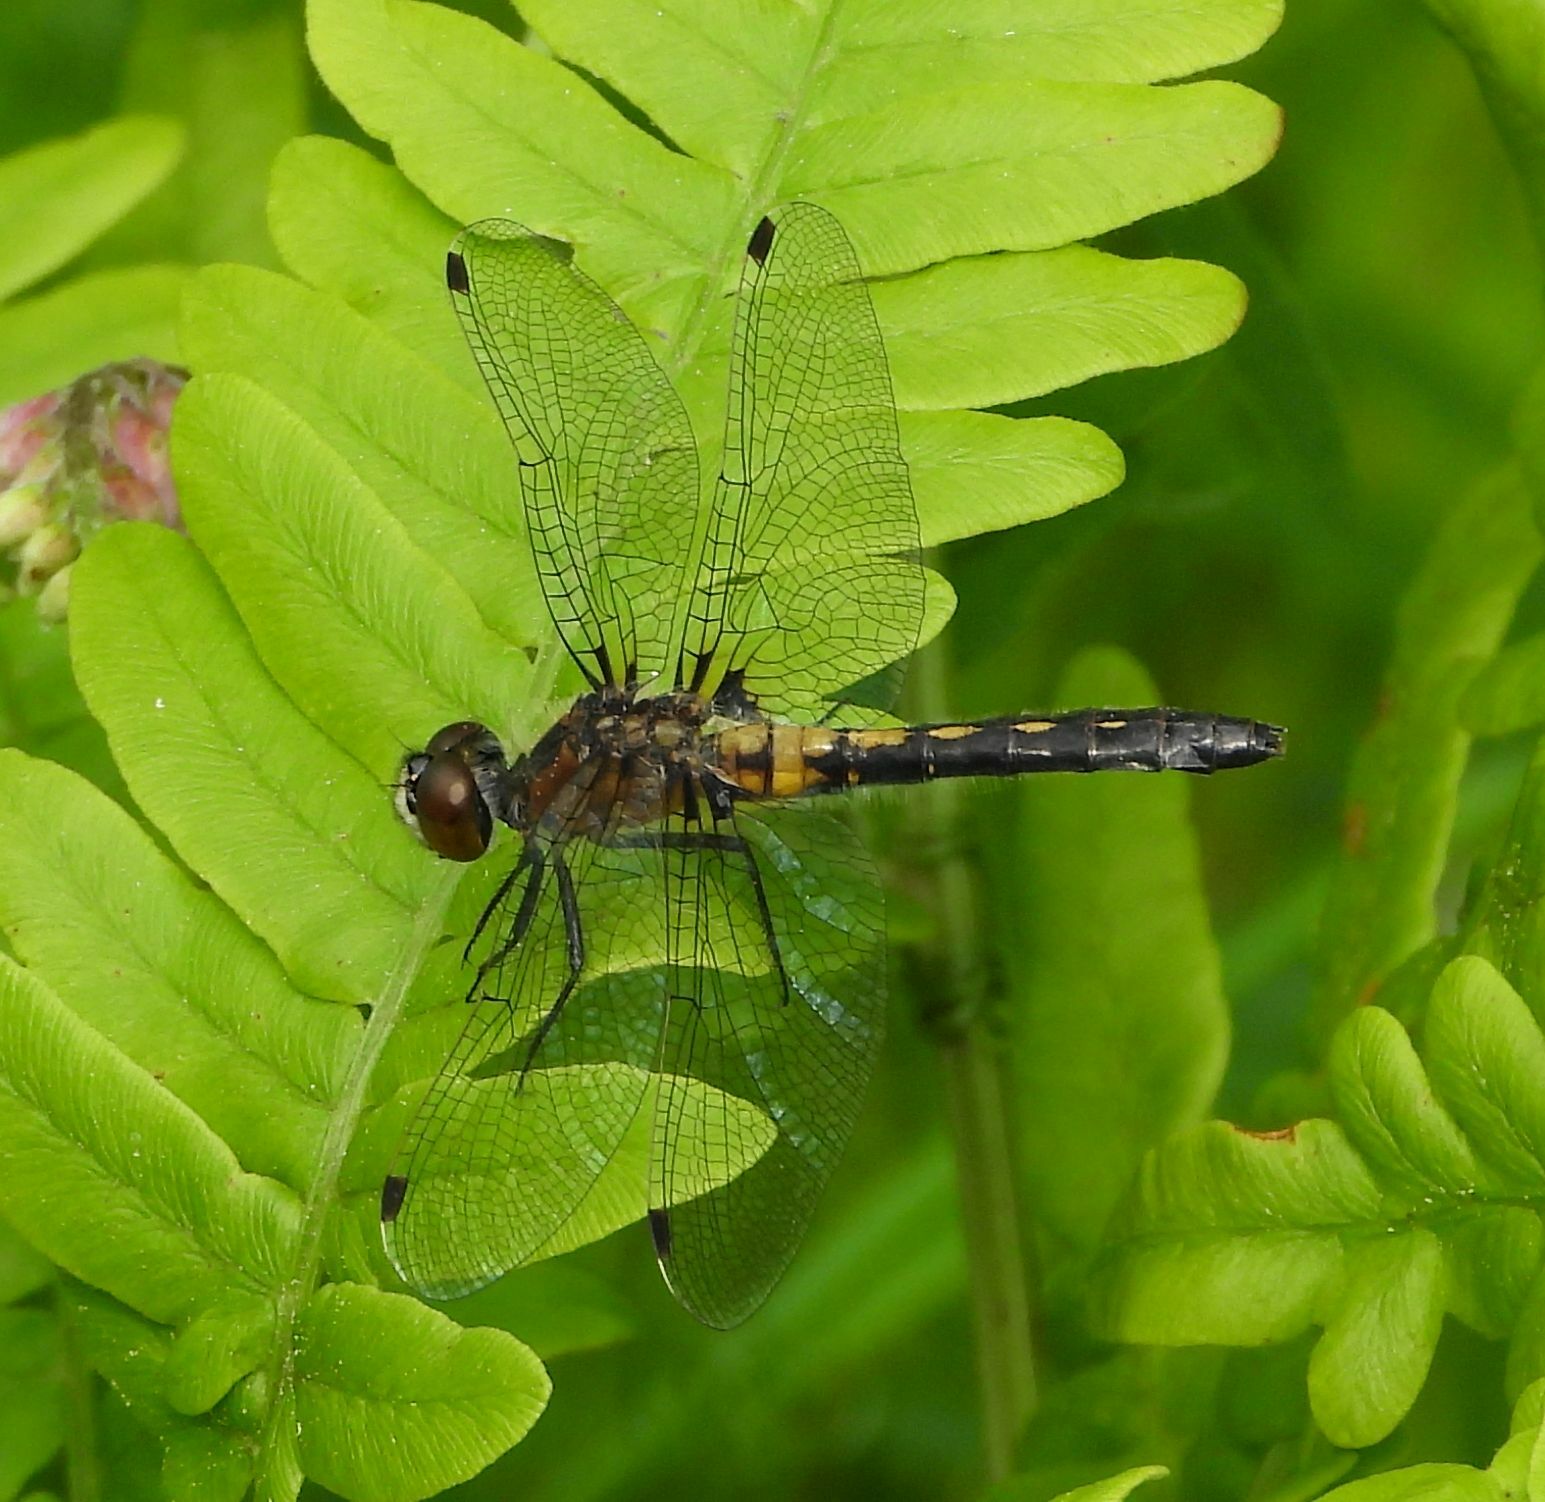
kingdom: Animalia
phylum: Arthropoda
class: Insecta
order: Odonata
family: Libellulidae
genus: Leucorrhinia
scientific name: Leucorrhinia frigida
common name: Frosted whiteface
